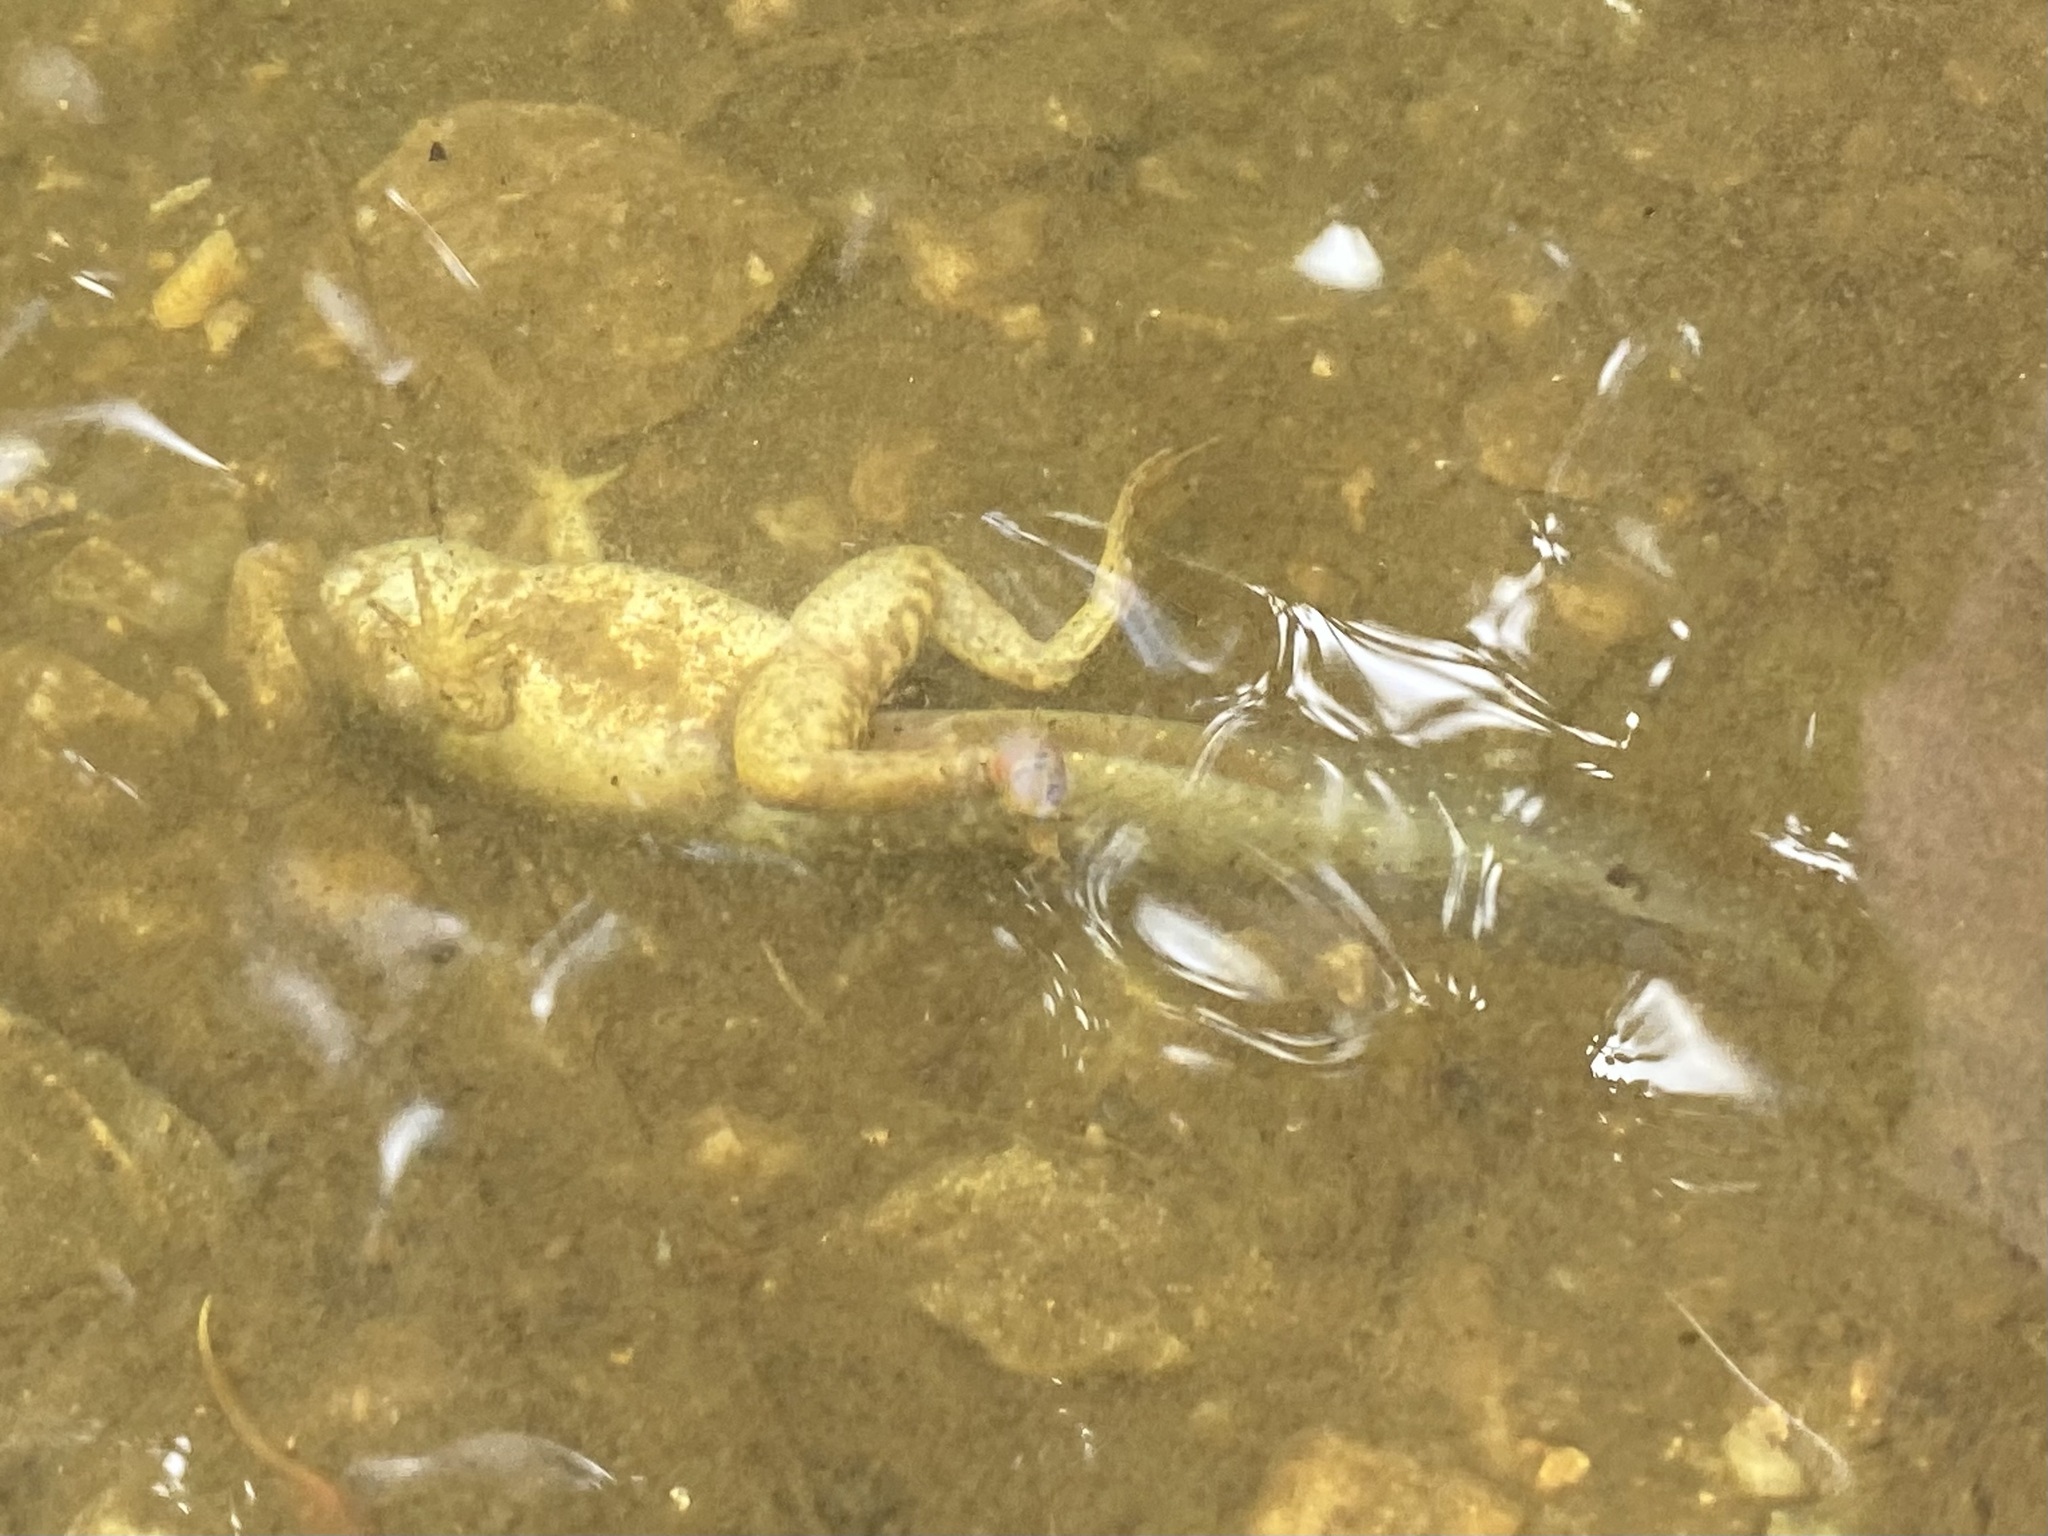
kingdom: Animalia
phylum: Chordata
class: Amphibia
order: Anura
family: Ranidae
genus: Lithobates
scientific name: Lithobates catesbeianus
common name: American bullfrog
